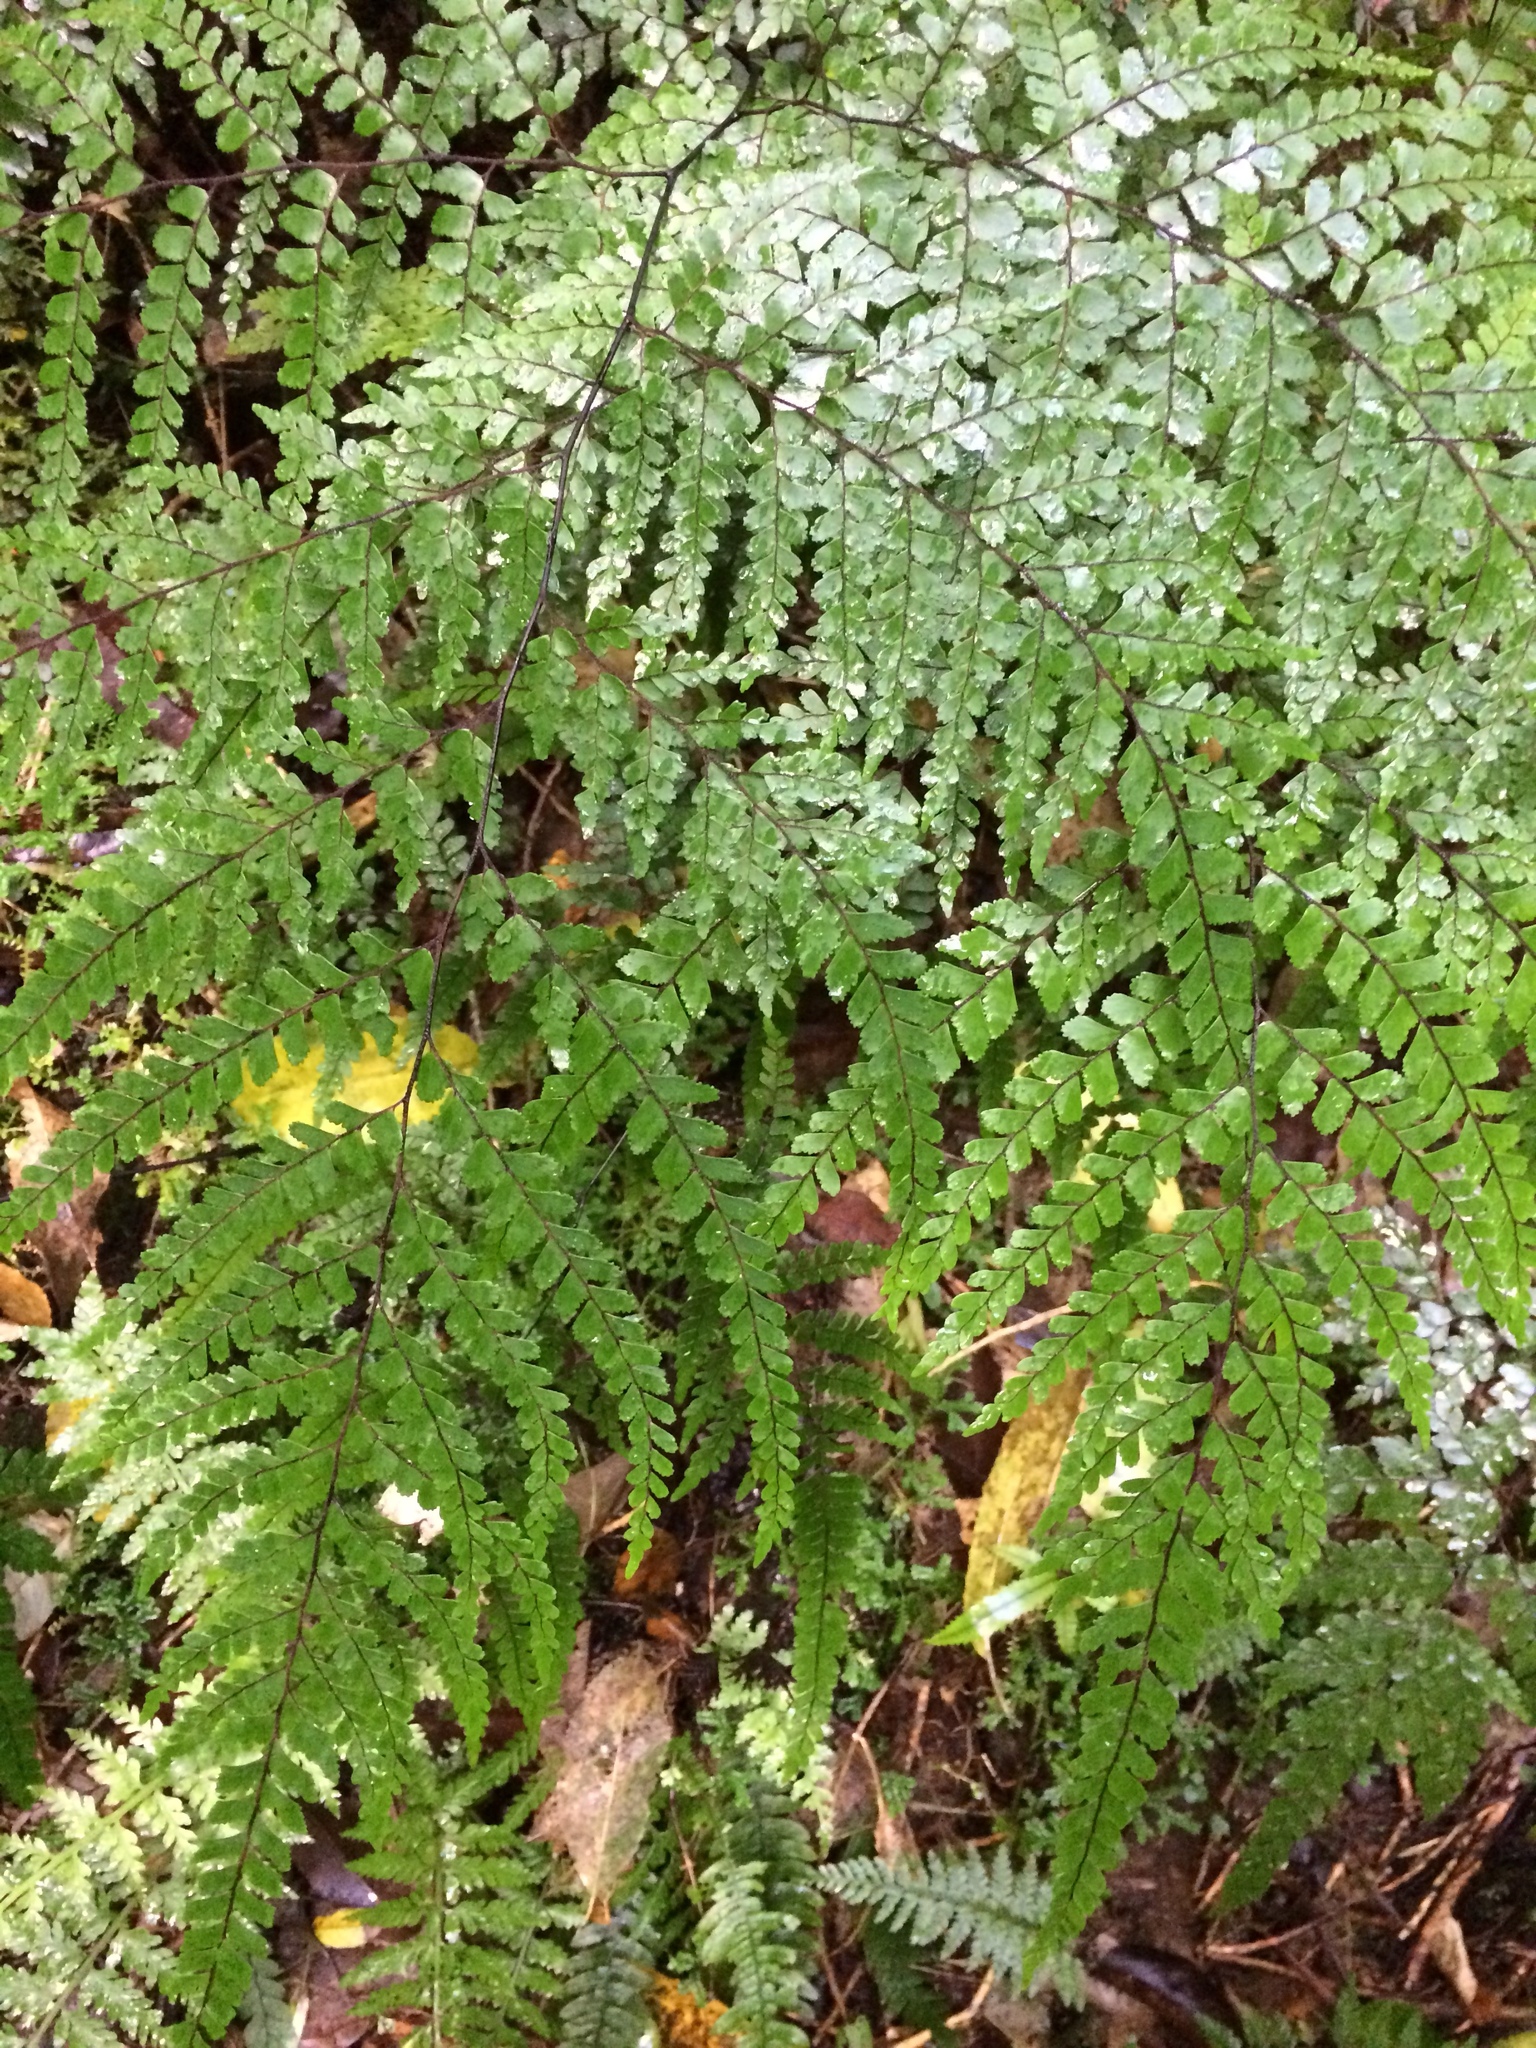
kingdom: Plantae
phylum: Tracheophyta
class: Polypodiopsida
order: Polypodiales
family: Pteridaceae
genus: Adiantum
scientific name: Adiantum formosum
